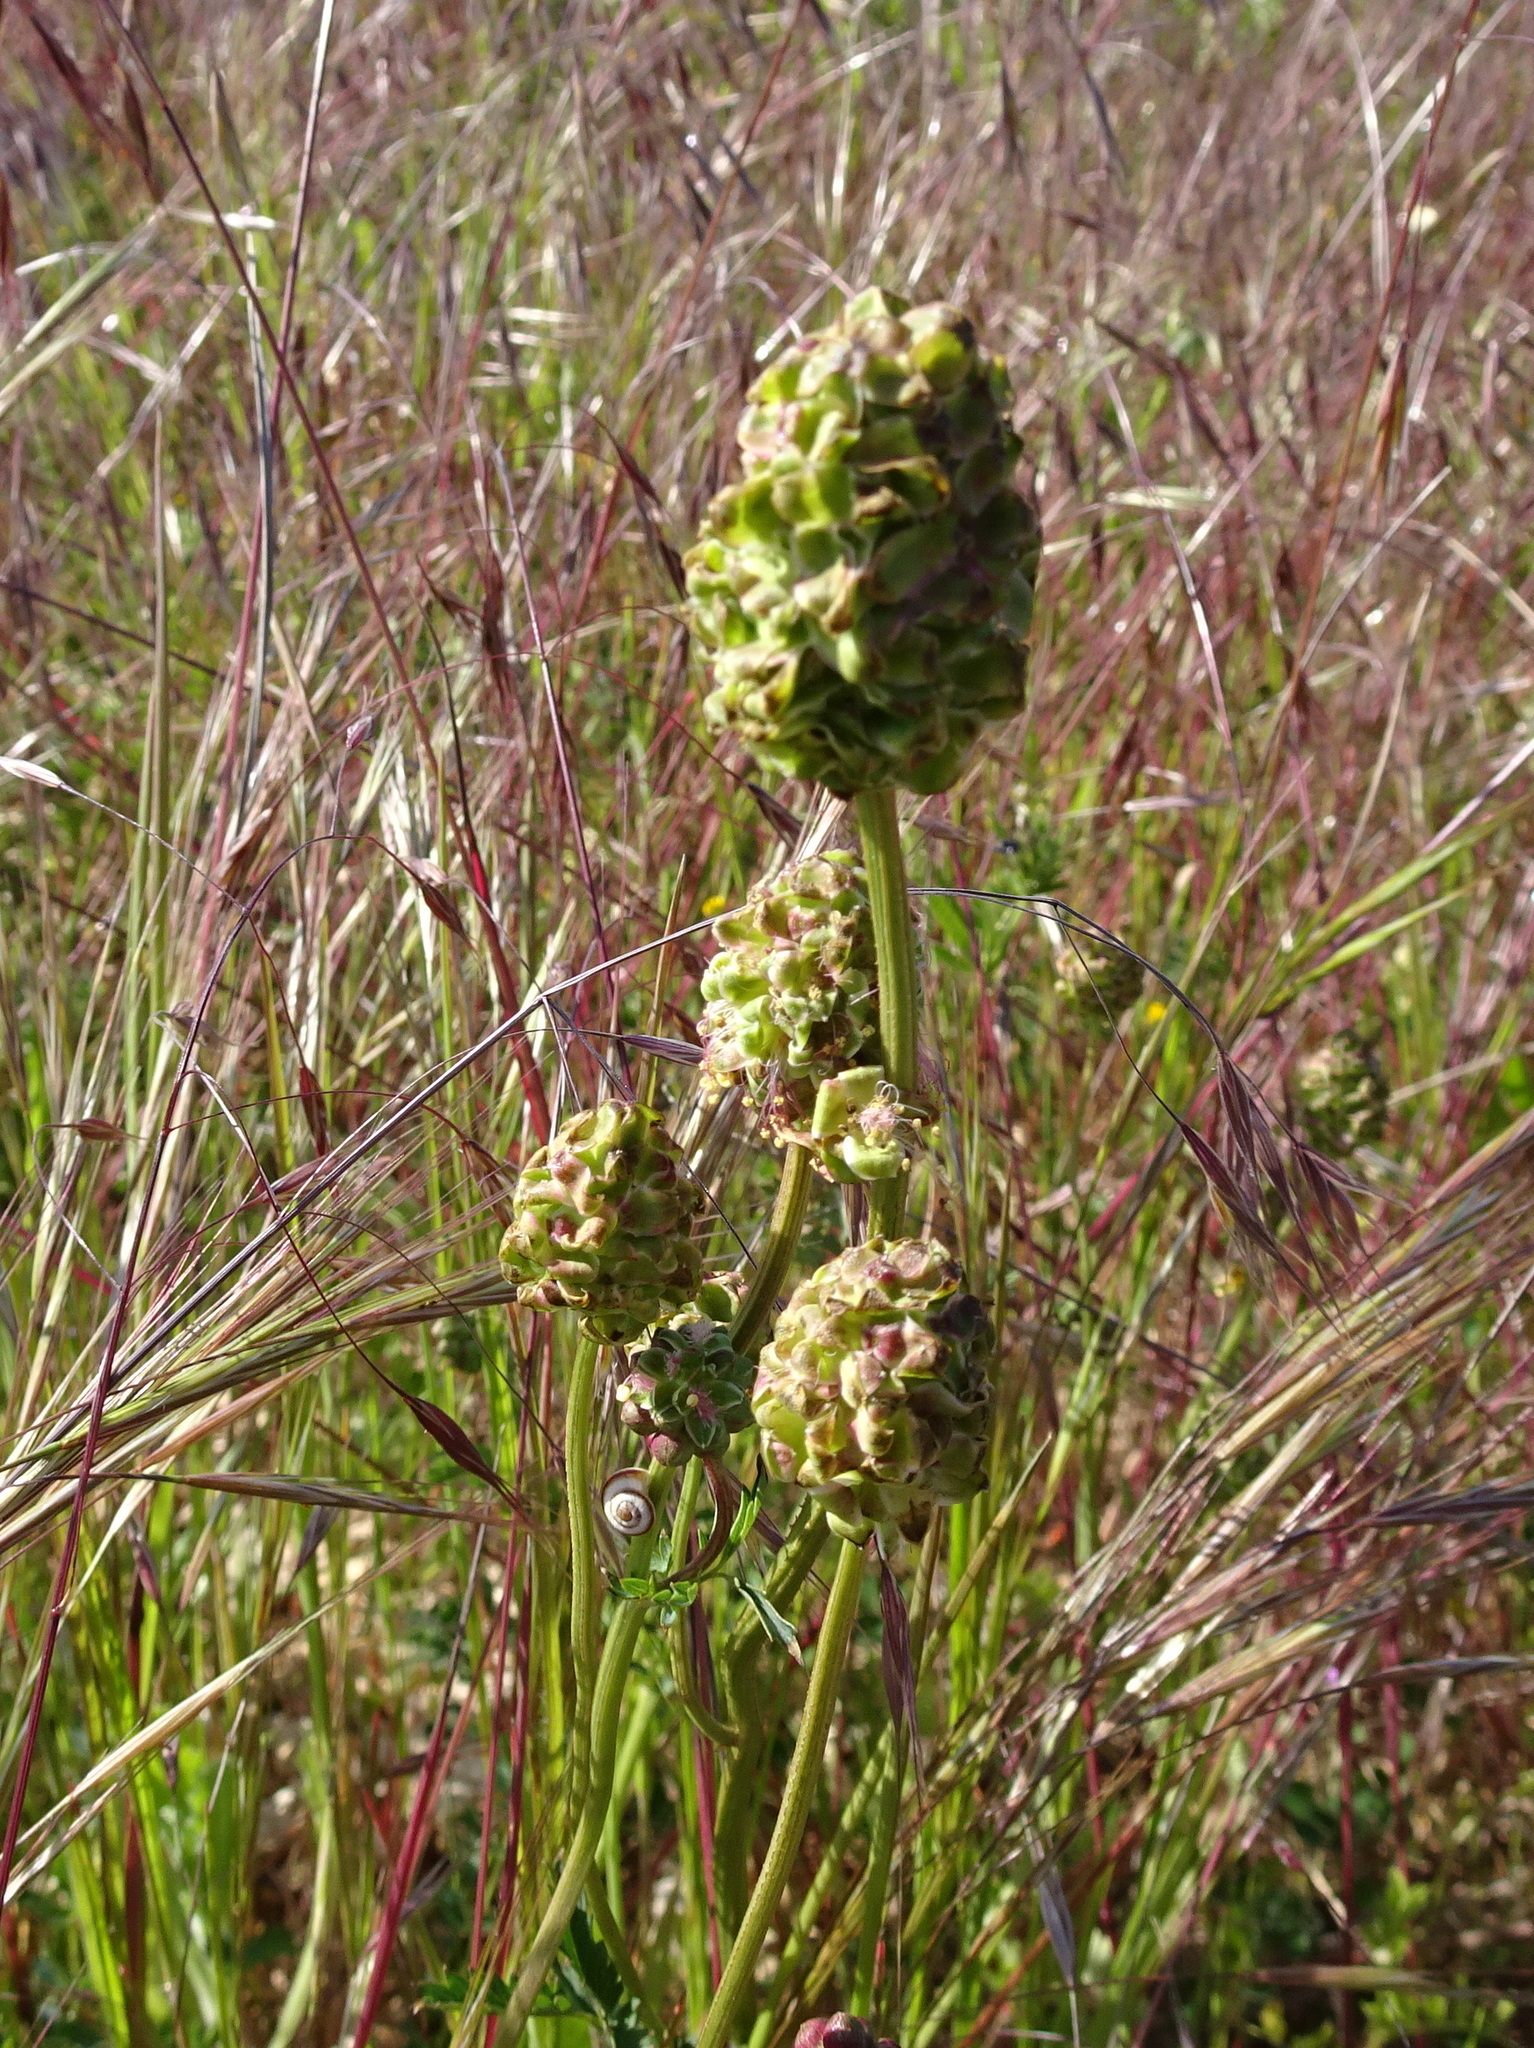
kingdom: Plantae
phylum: Tracheophyta
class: Magnoliopsida
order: Rosales
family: Rosaceae
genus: Poterium
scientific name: Poterium sanguisorba
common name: Salad burnet
